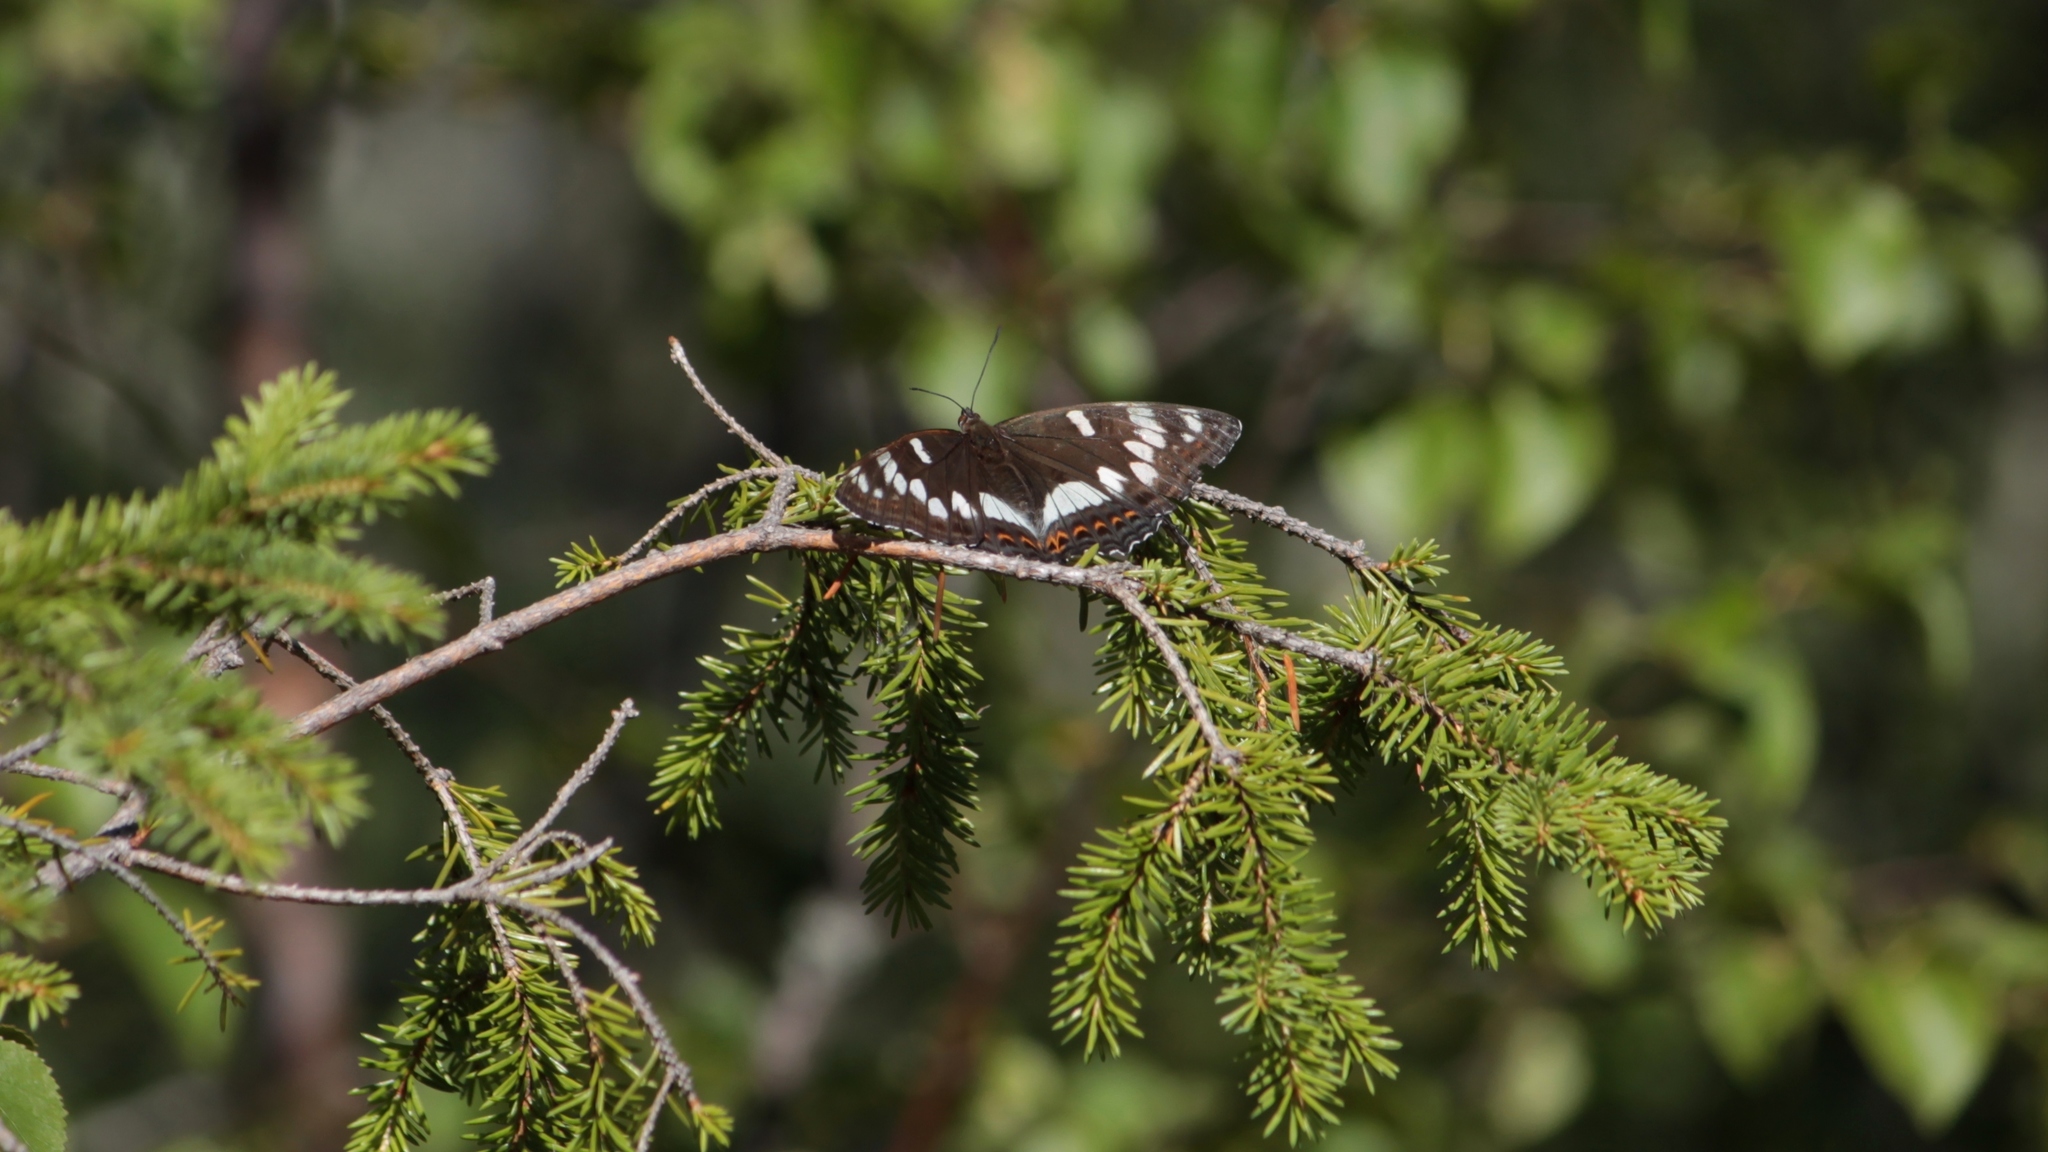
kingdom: Animalia
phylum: Arthropoda
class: Insecta
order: Lepidoptera
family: Nymphalidae
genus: Limenitis
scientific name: Limenitis populi
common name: Poplar admiral
